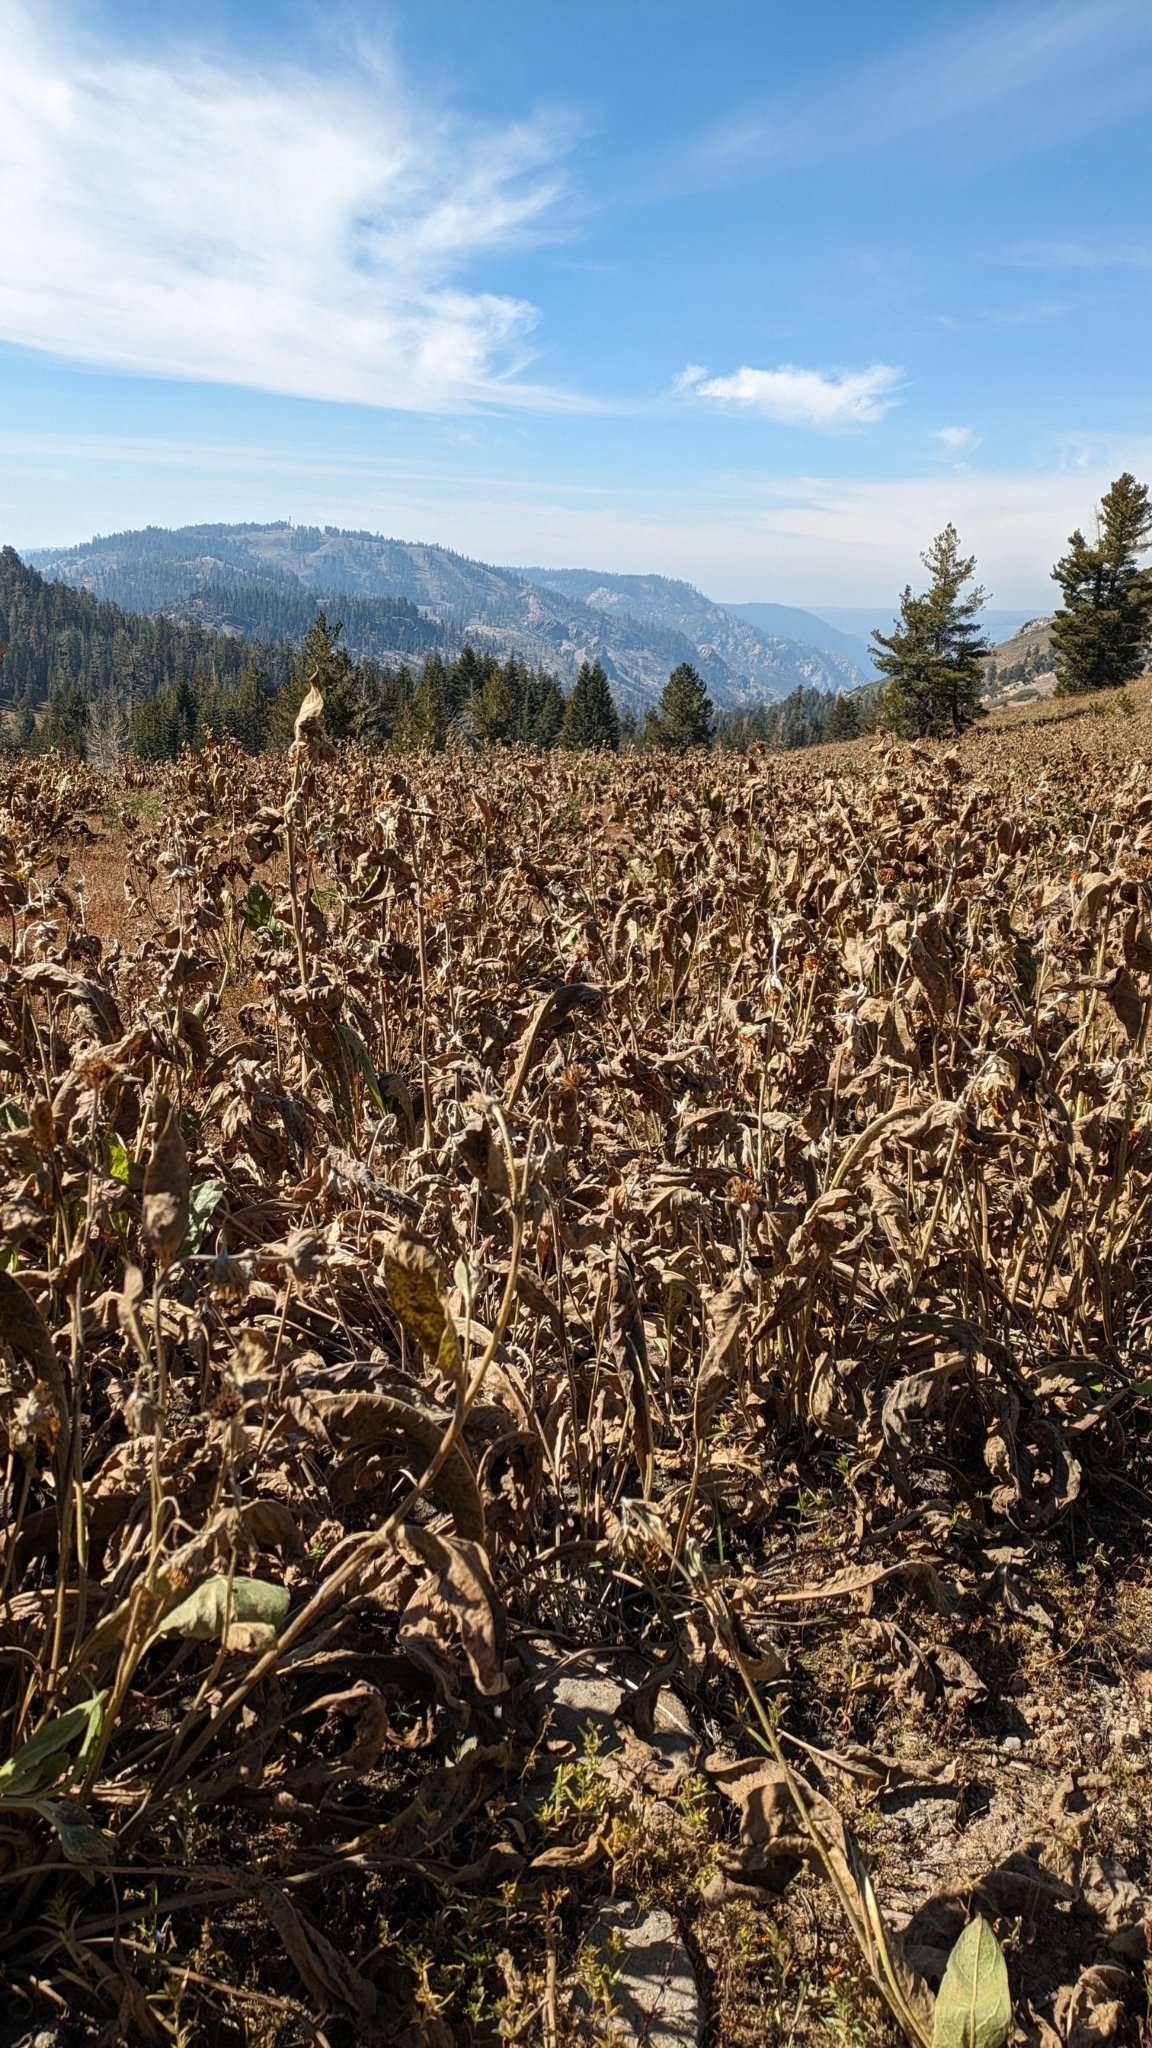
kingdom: Plantae
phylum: Tracheophyta
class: Magnoliopsida
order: Asterales
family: Asteraceae
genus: Wyethia
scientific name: Wyethia mollis
